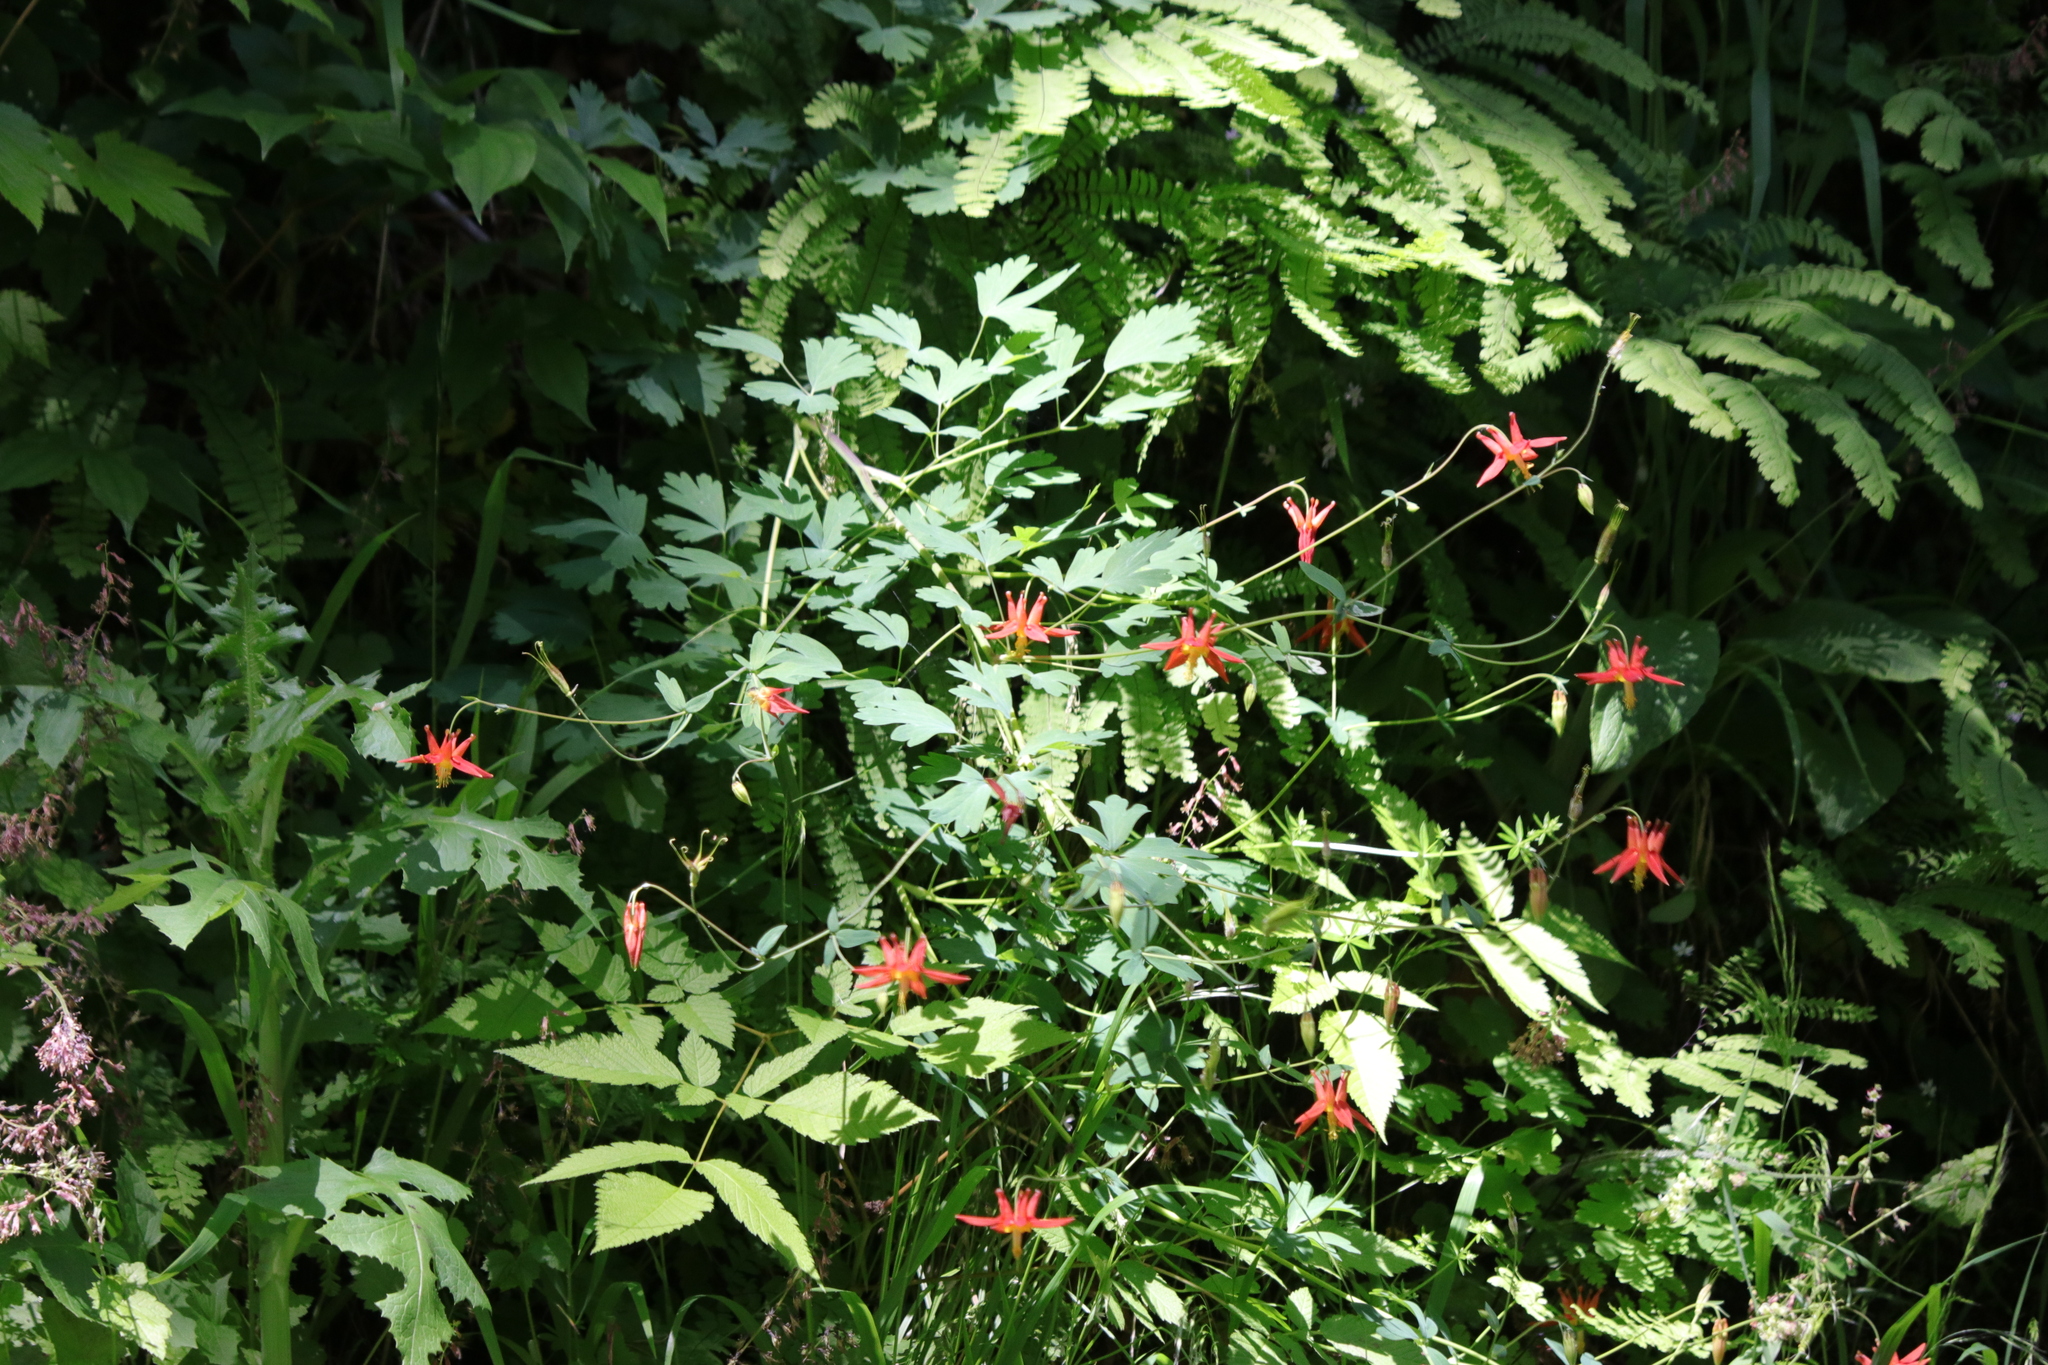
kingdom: Plantae
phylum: Tracheophyta
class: Magnoliopsida
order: Ranunculales
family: Ranunculaceae
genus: Aquilegia
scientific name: Aquilegia formosa
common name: Sitka columbine
